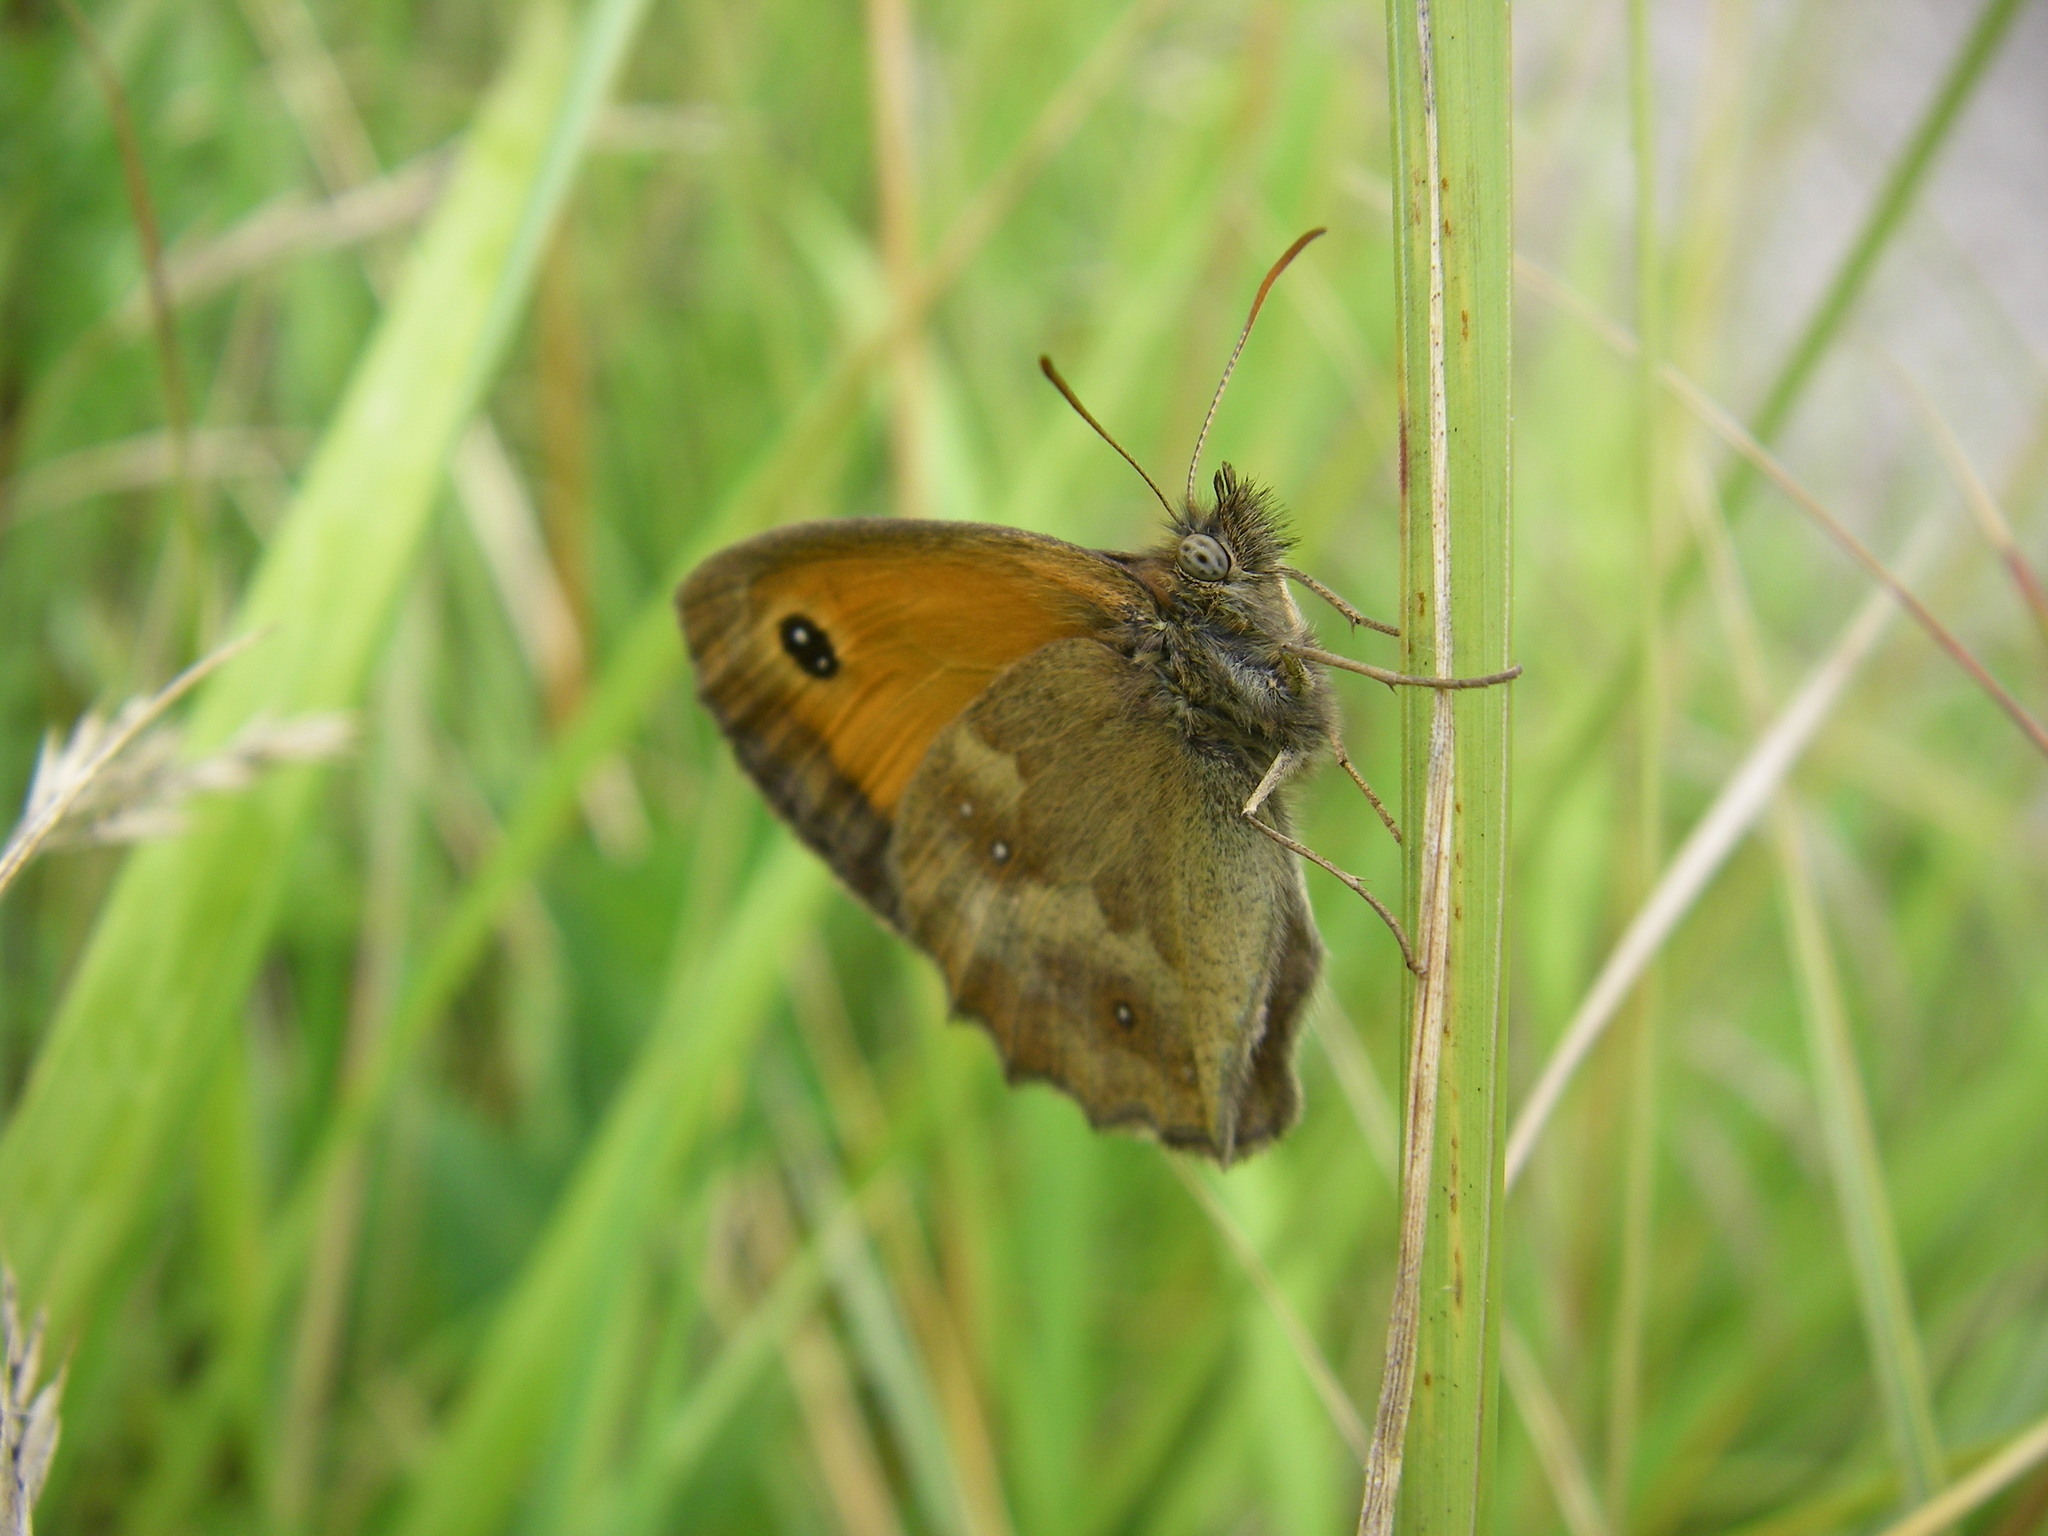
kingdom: Animalia
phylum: Arthropoda
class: Insecta
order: Lepidoptera
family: Nymphalidae
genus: Pyronia
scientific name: Pyronia tithonus
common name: Gatekeeper
